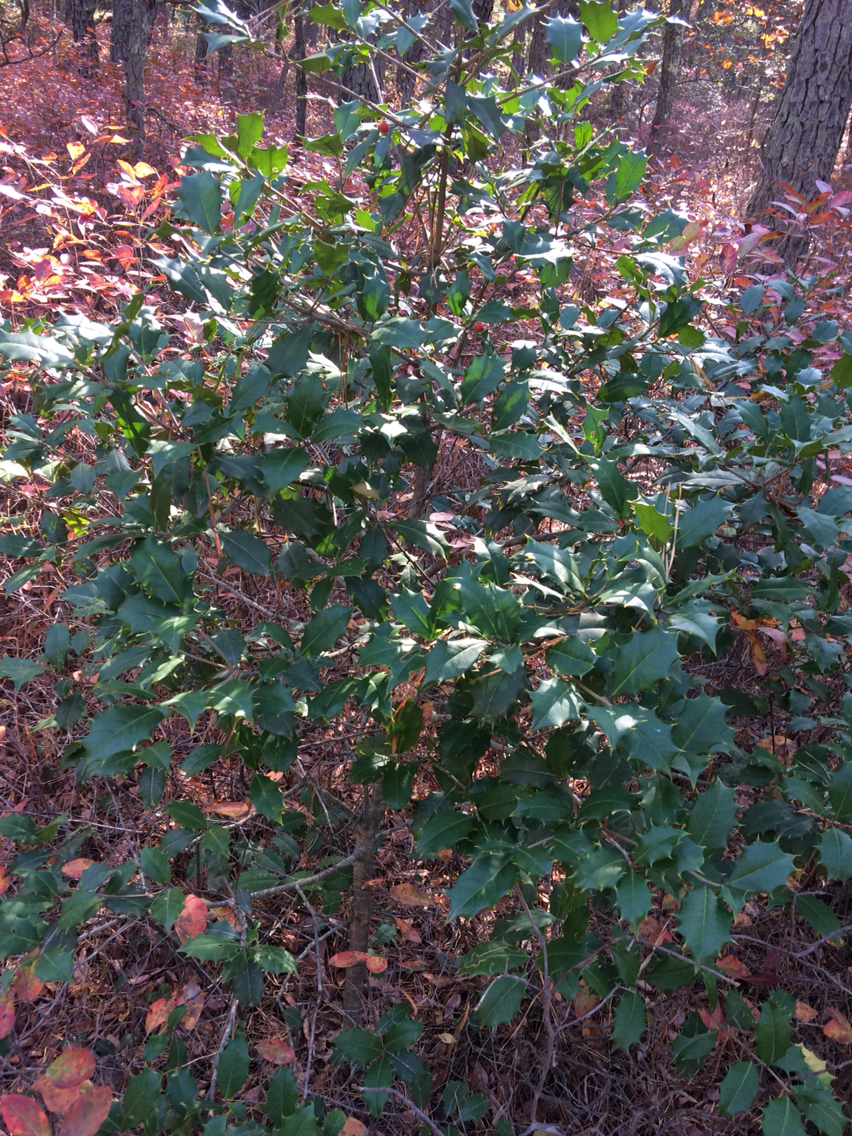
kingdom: Plantae
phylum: Tracheophyta
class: Magnoliopsida
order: Aquifoliales
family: Aquifoliaceae
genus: Ilex
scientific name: Ilex opaca
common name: American holly
